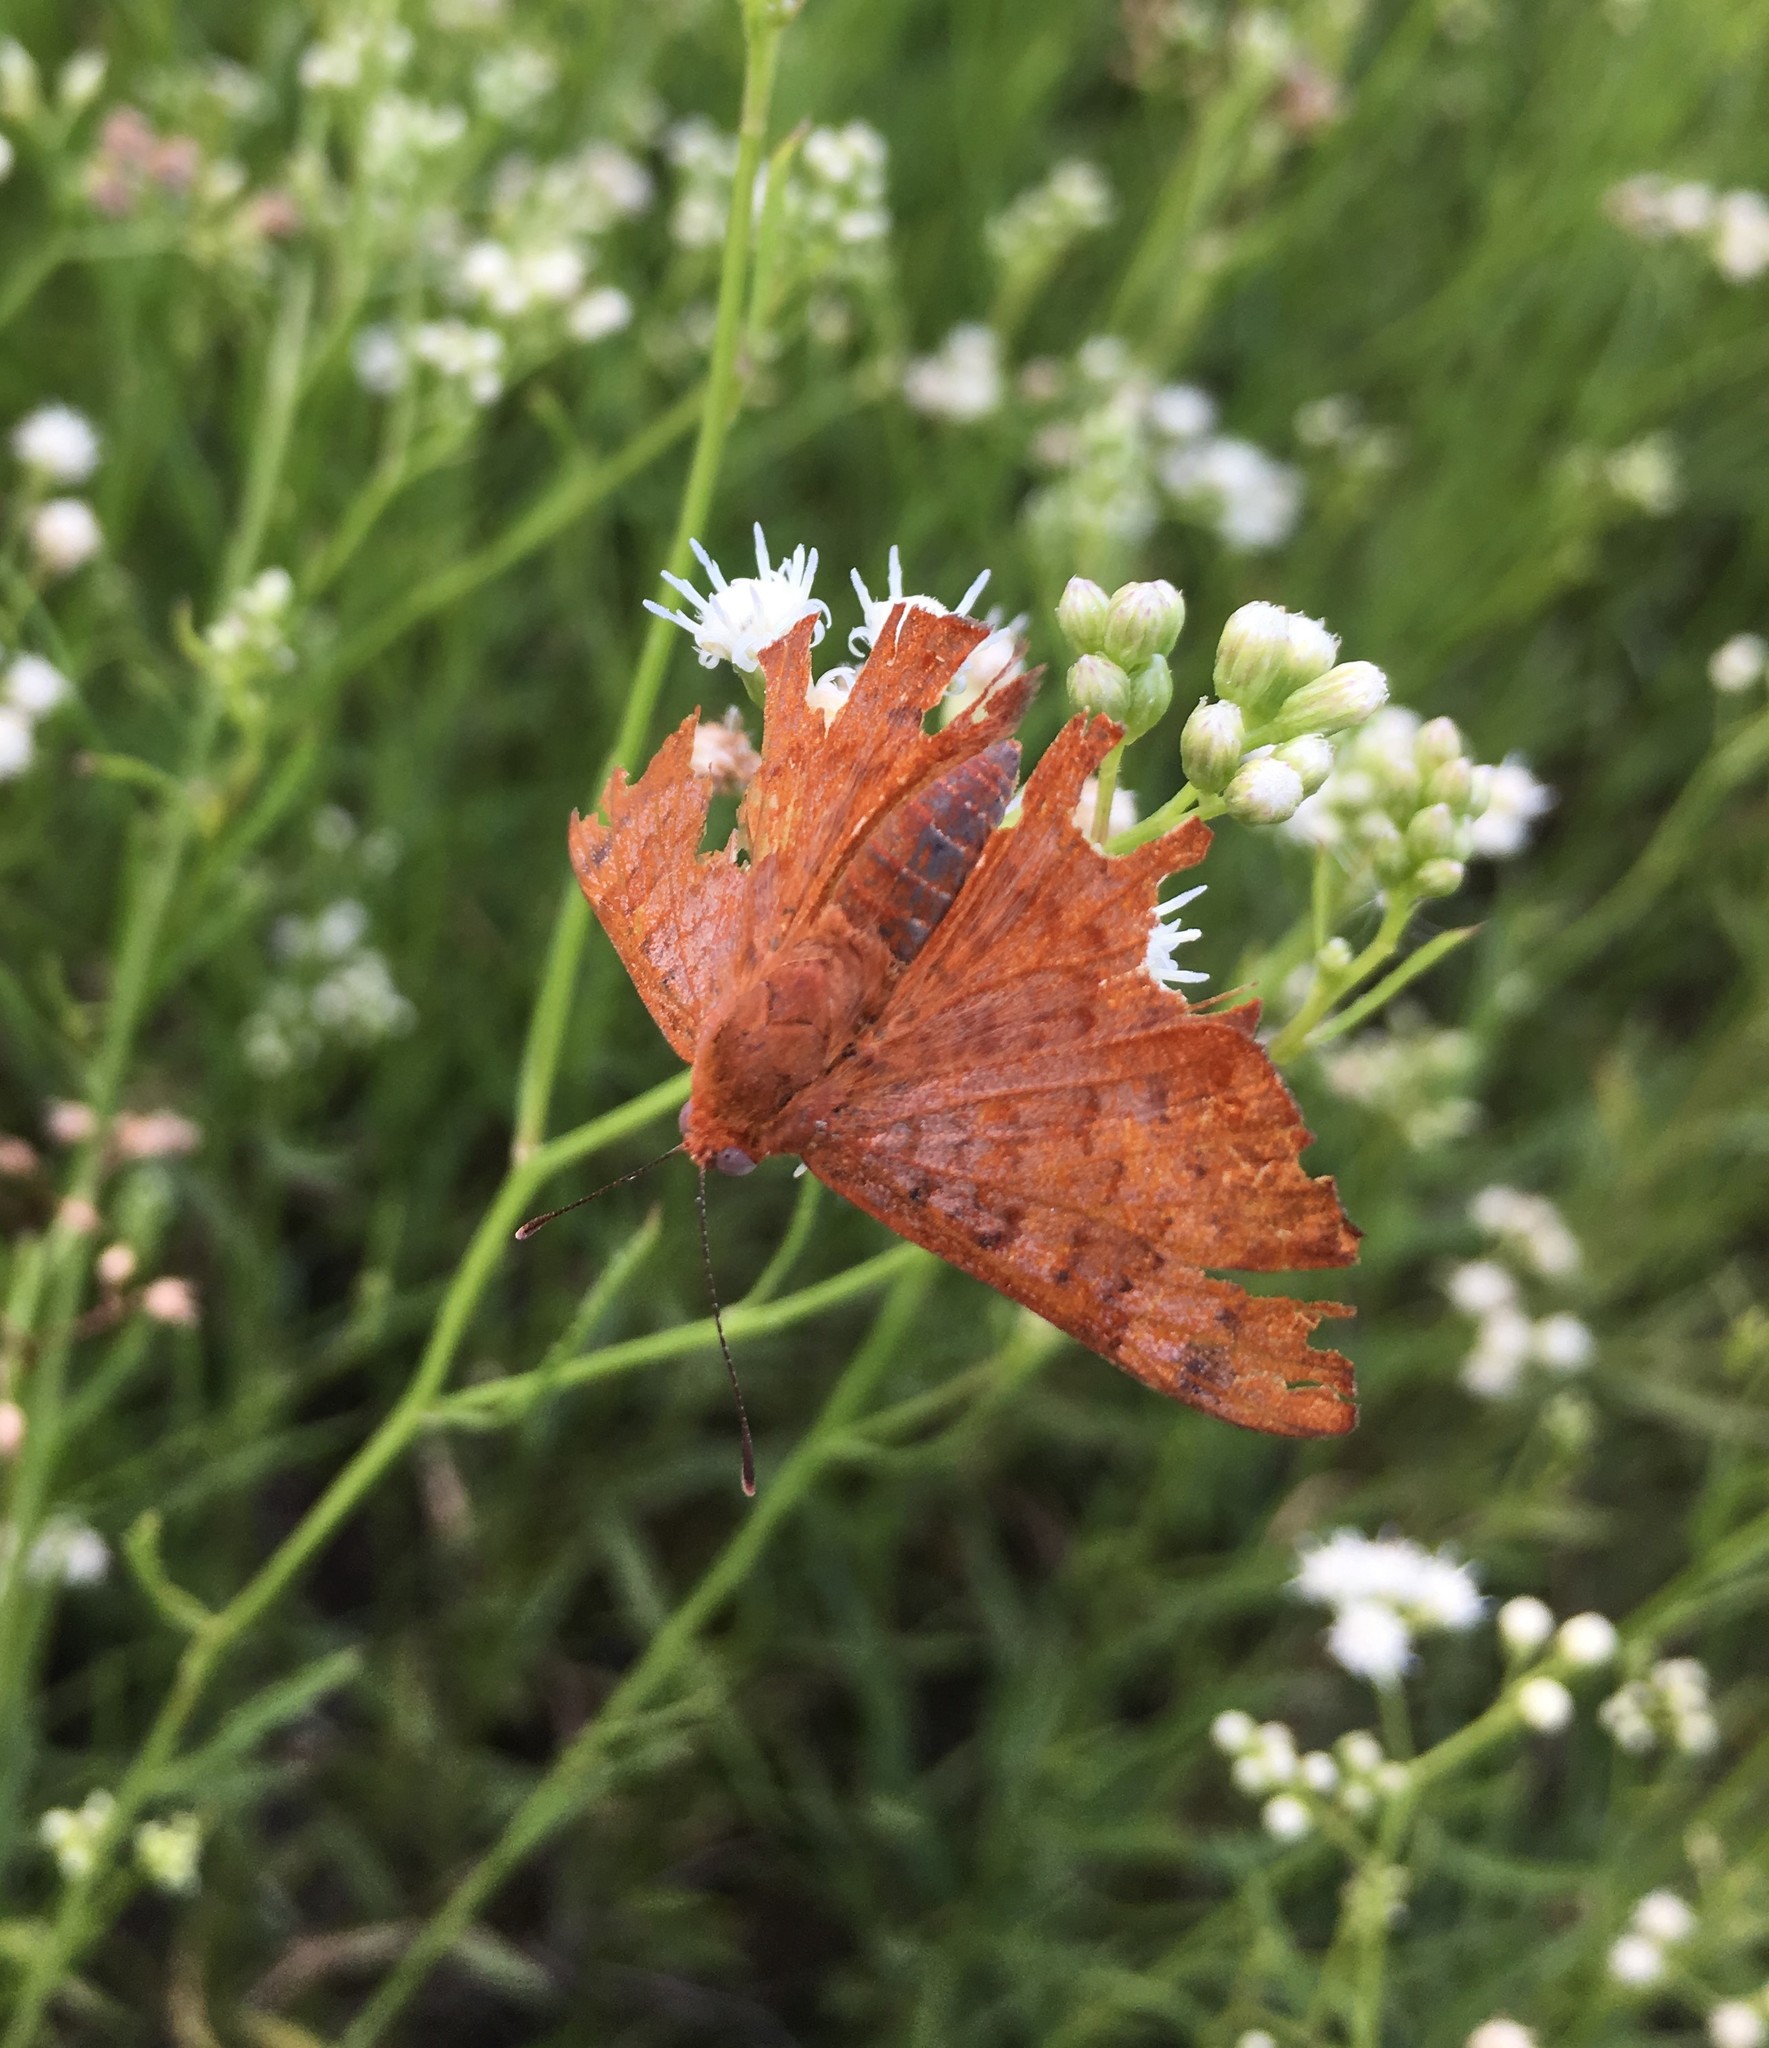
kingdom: Animalia
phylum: Arthropoda
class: Insecta
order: Lepidoptera
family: Lycaenidae
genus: Emesis
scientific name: Emesis russula
